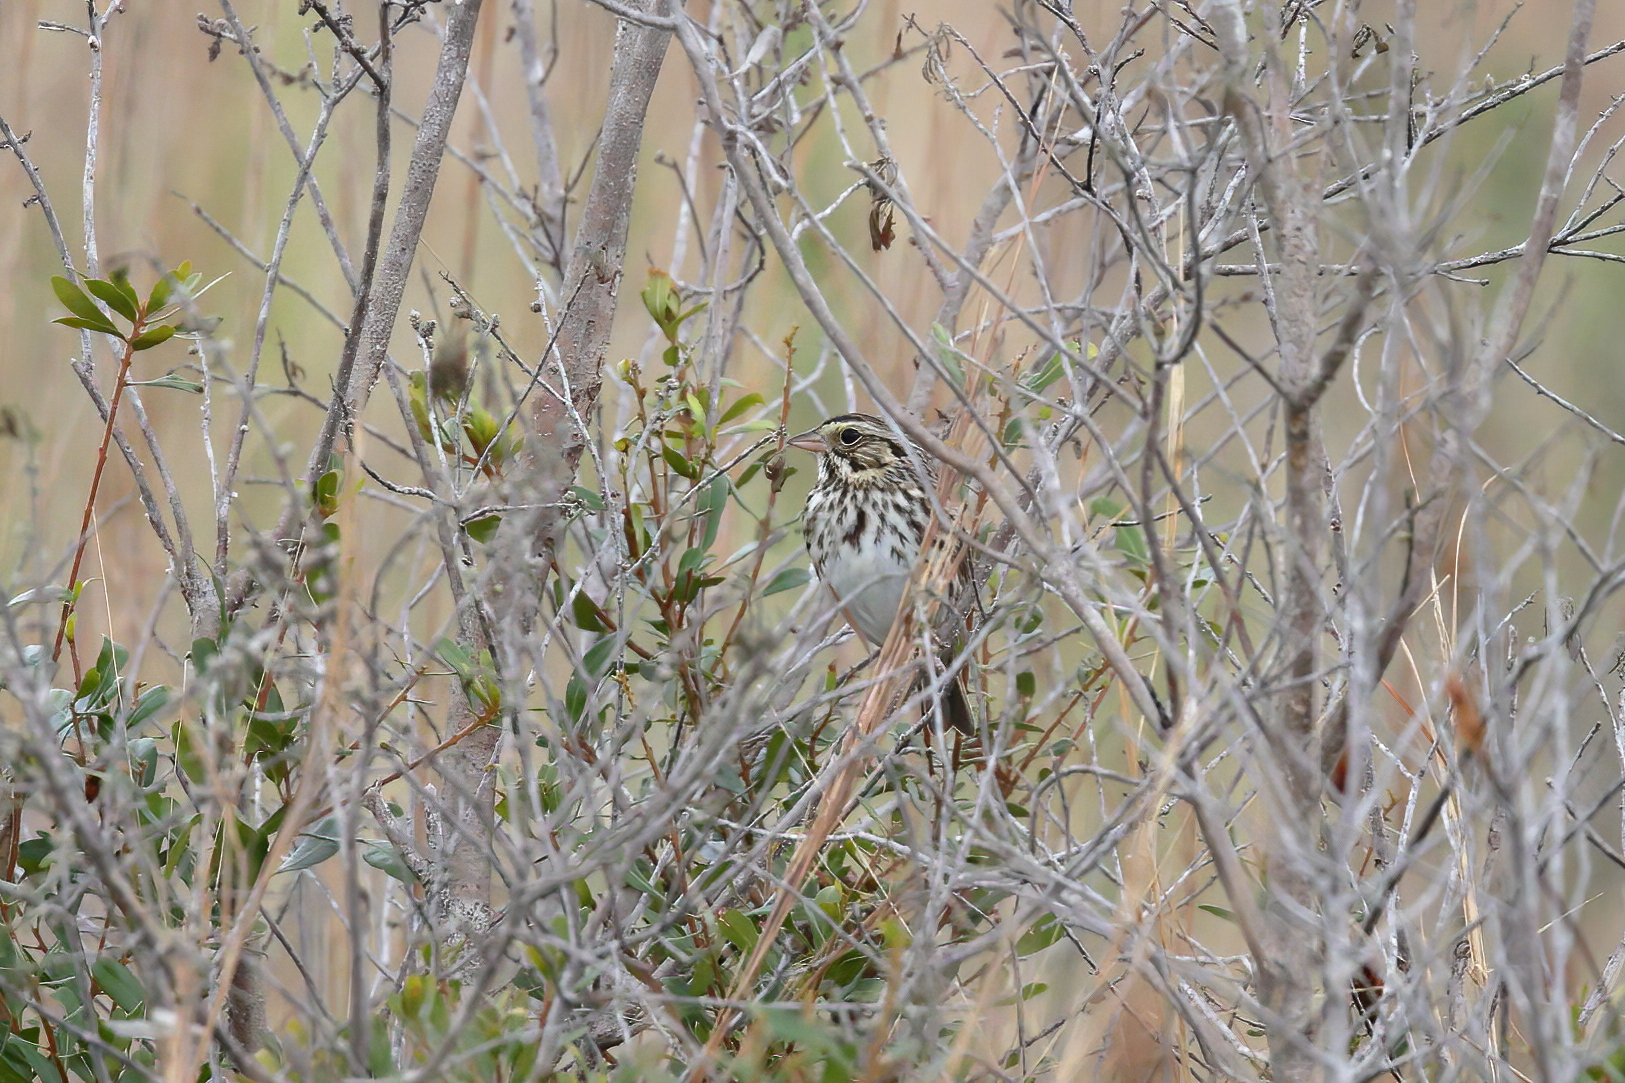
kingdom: Animalia
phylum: Chordata
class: Aves
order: Passeriformes
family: Passerellidae
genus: Passerculus
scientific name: Passerculus sandwichensis
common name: Savannah sparrow
